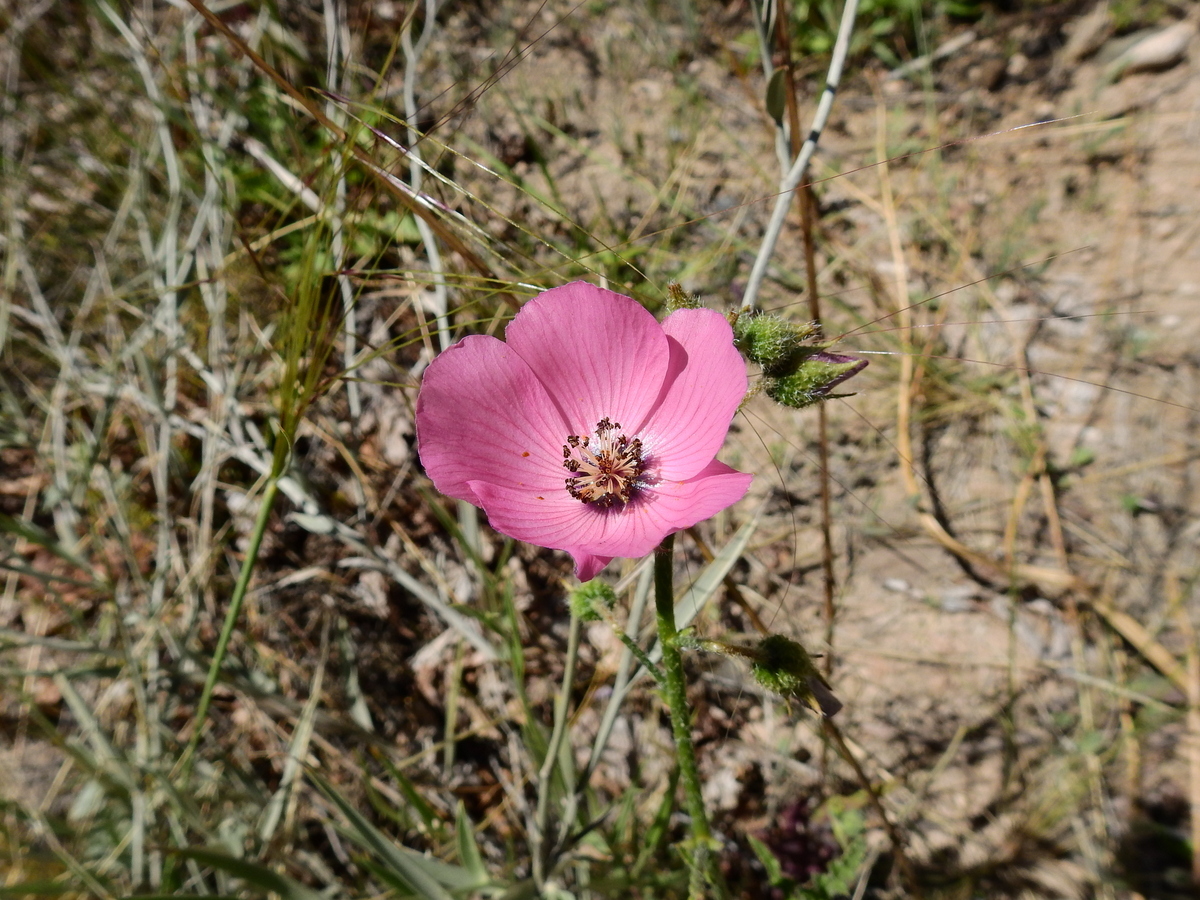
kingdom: Plantae
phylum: Tracheophyta
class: Magnoliopsida
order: Malvales
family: Malvaceae
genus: Lecanophora
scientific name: Lecanophora heterophylla
